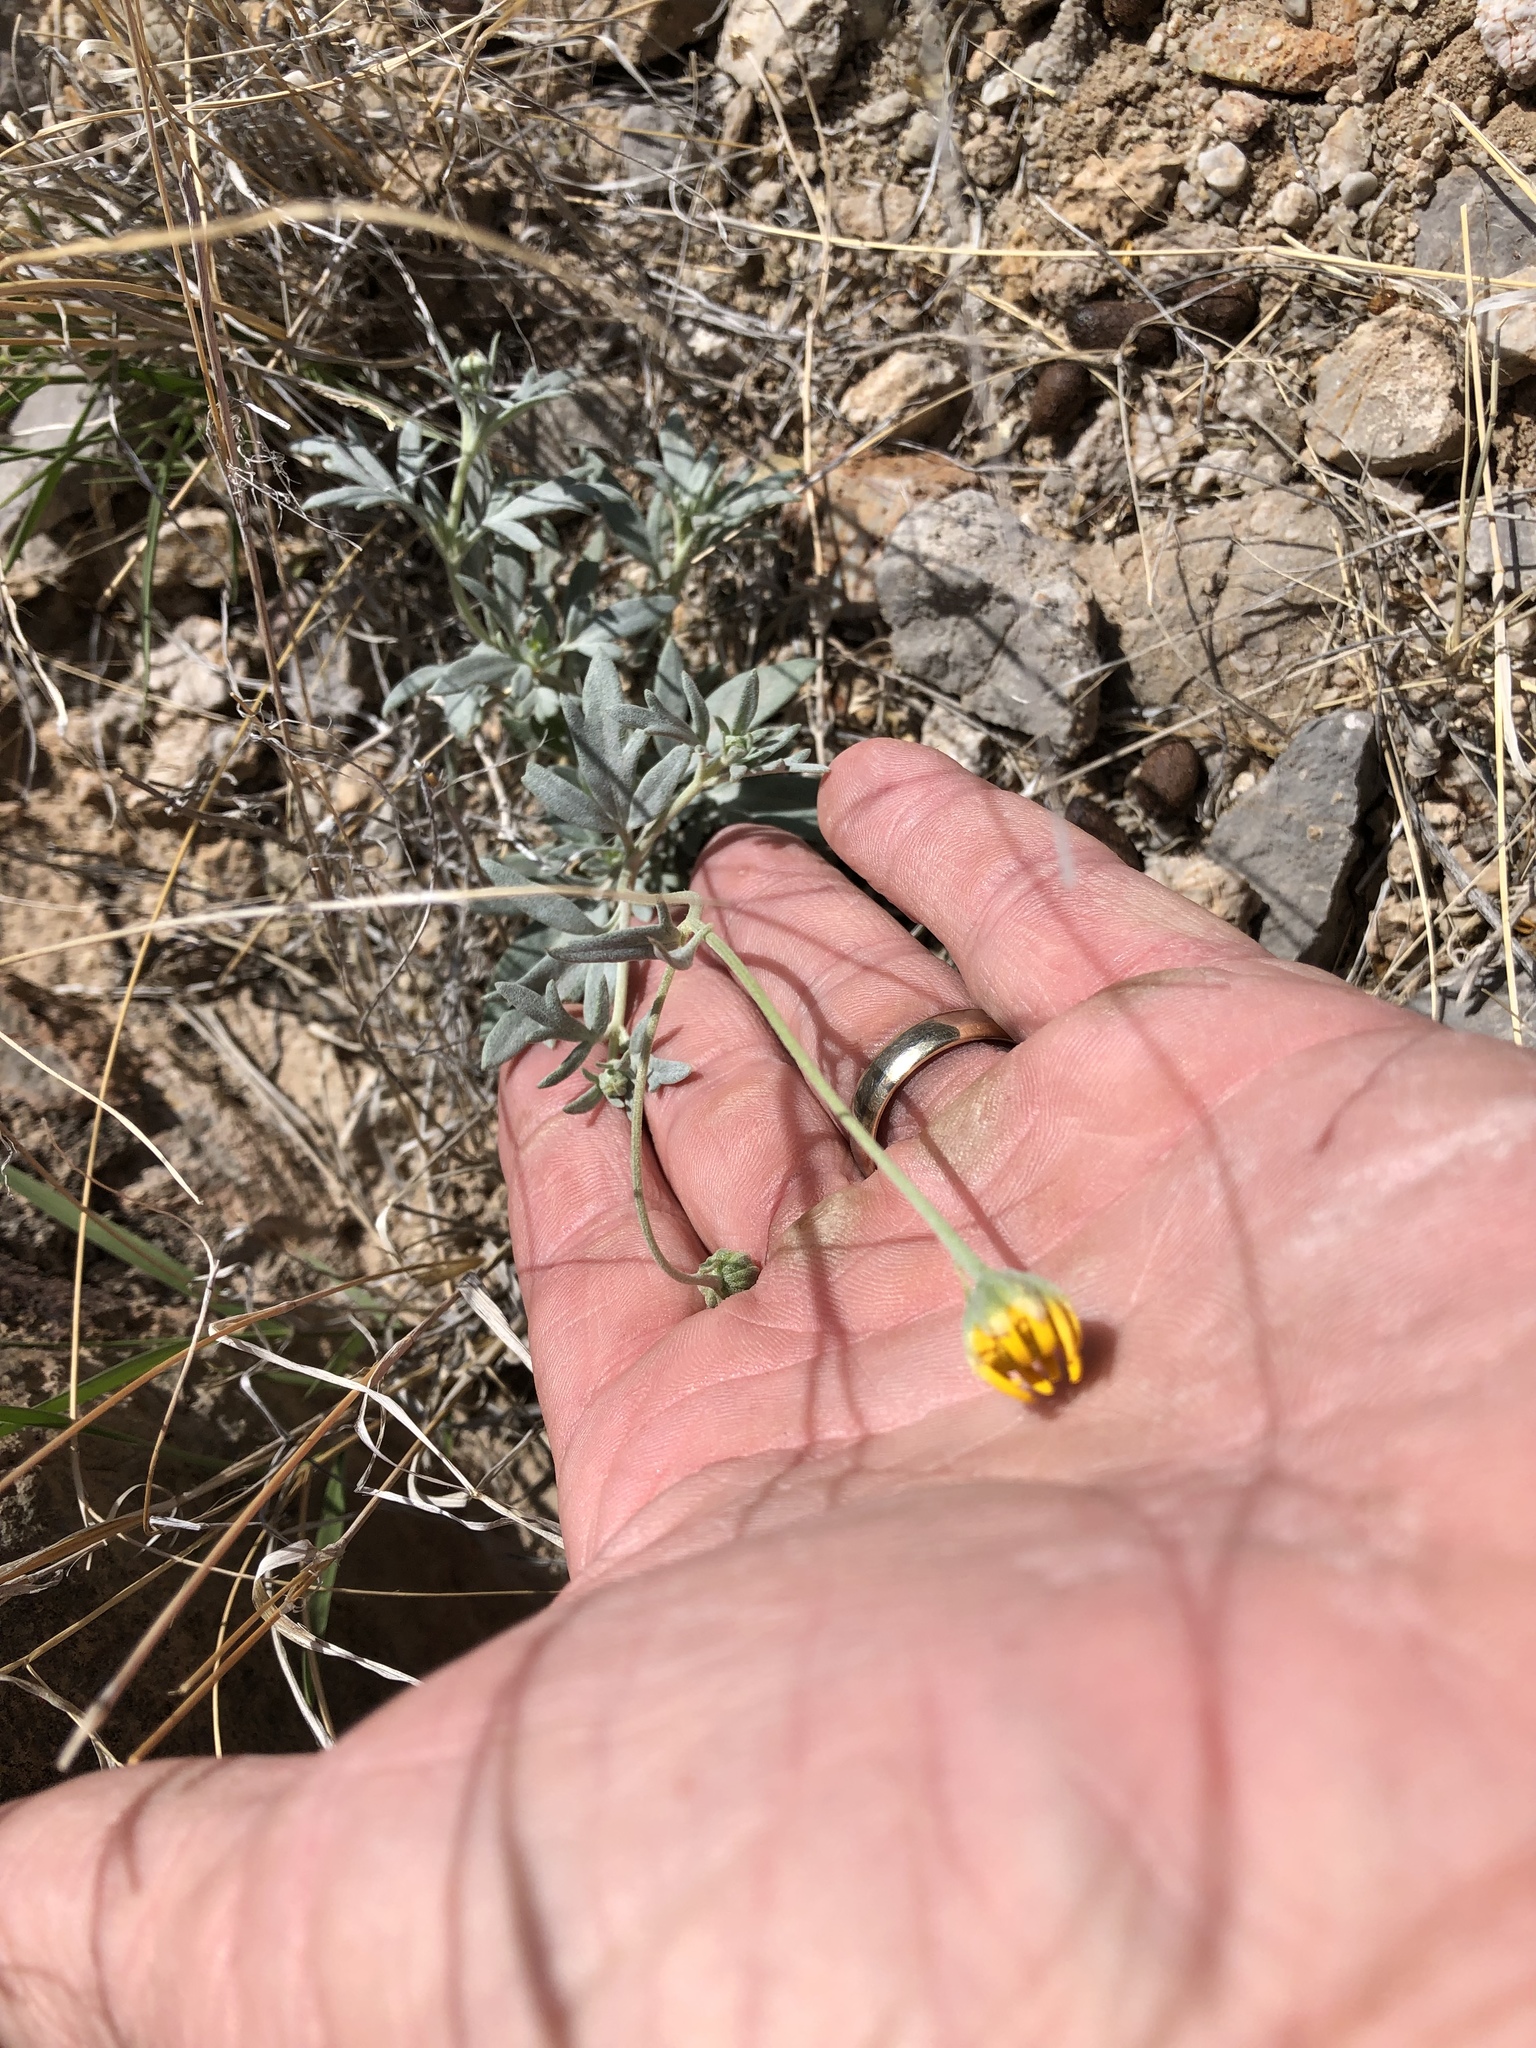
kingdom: Plantae
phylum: Tracheophyta
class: Magnoliopsida
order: Asterales
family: Asteraceae
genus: Picradeniopsis
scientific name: Picradeniopsis absinthifolia
